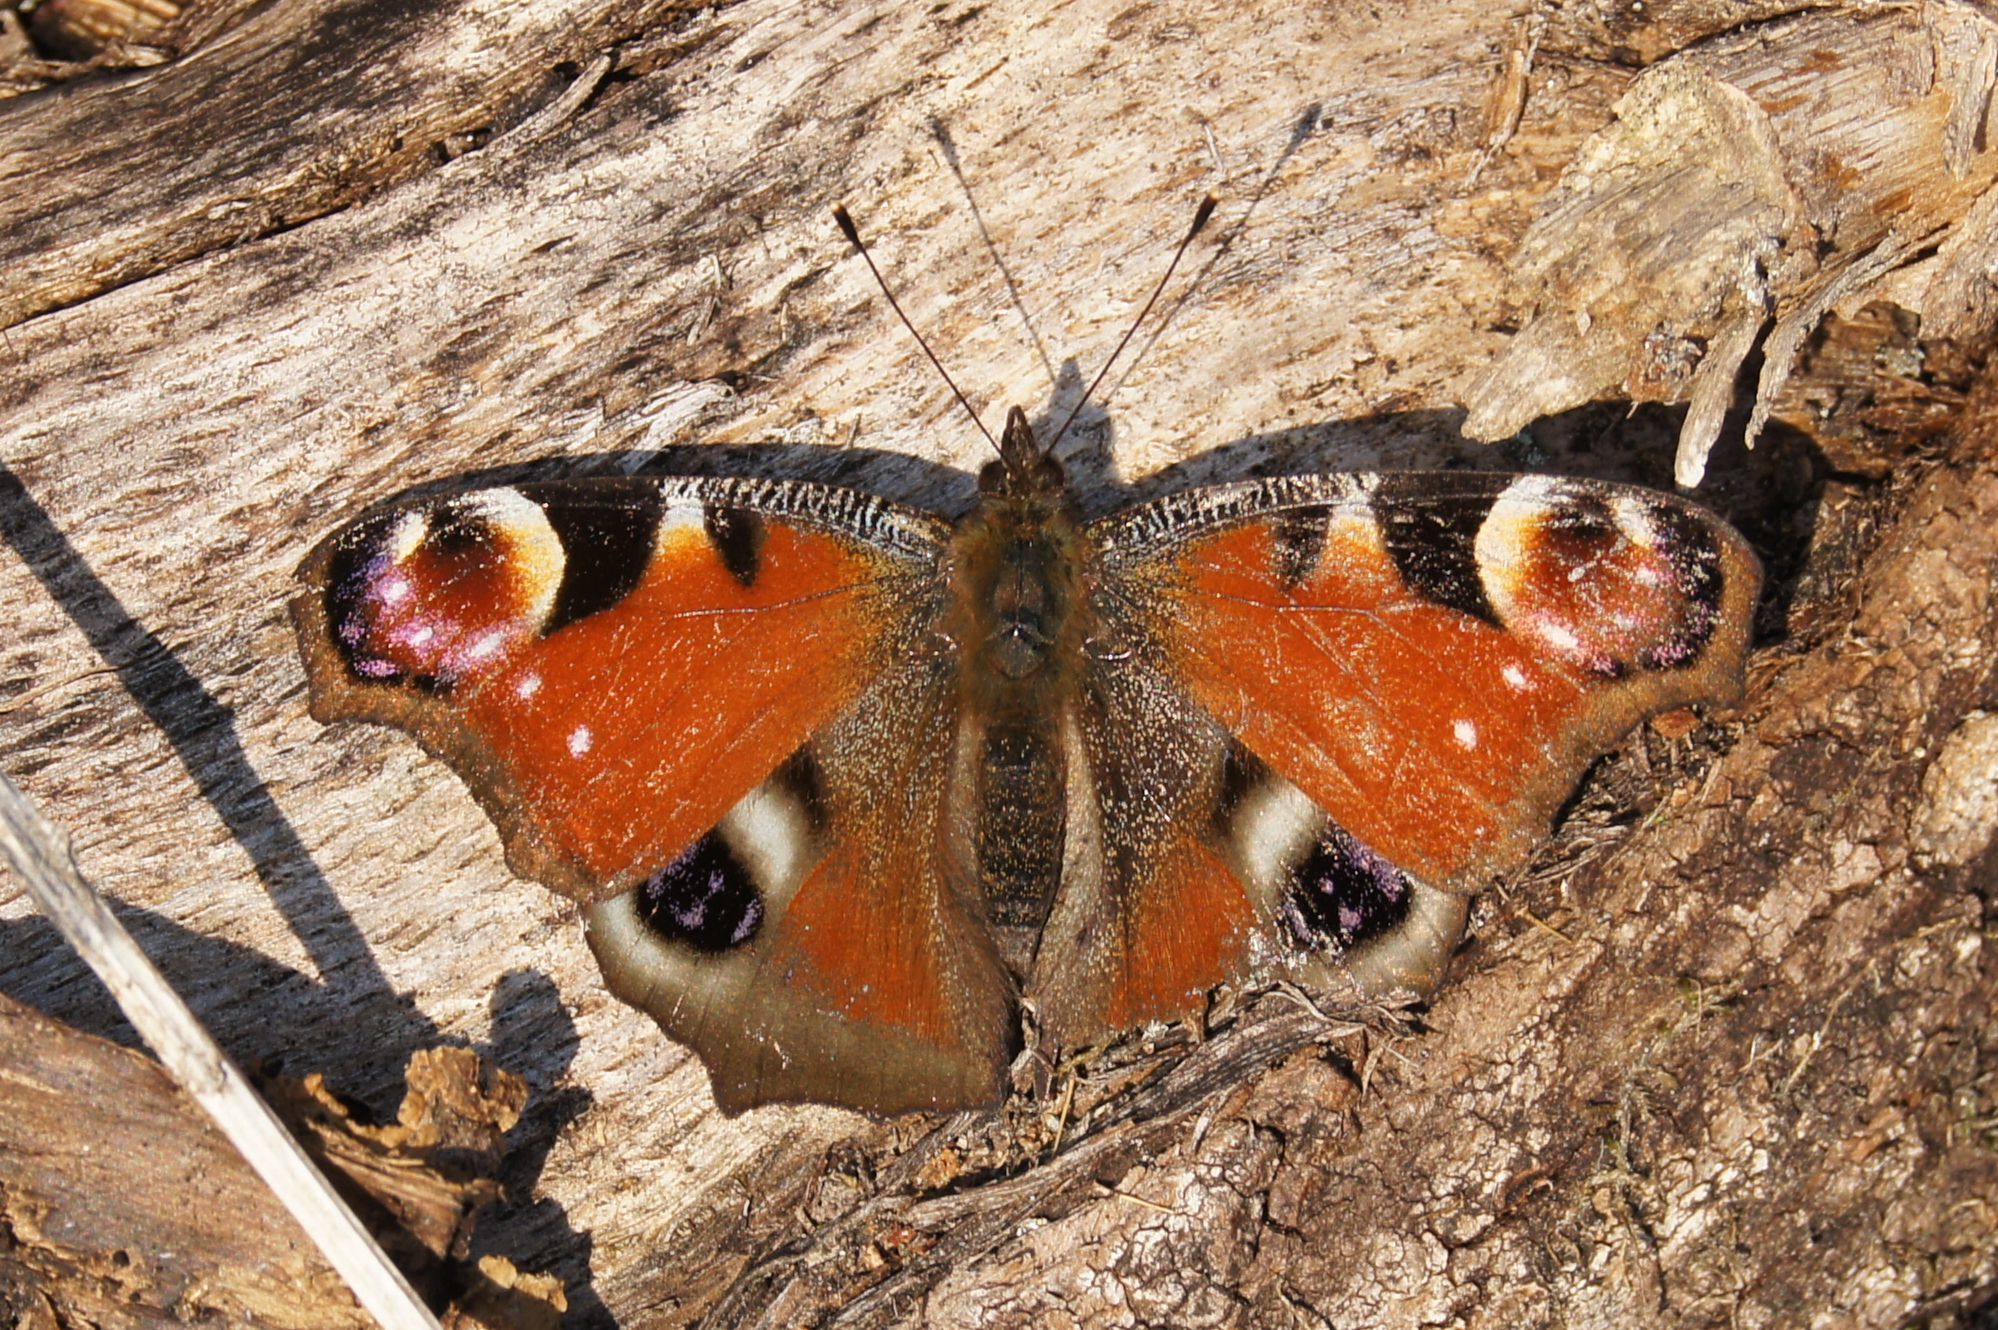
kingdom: Animalia
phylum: Arthropoda
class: Insecta
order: Lepidoptera
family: Nymphalidae
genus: Aglais
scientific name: Aglais io
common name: Peacock
